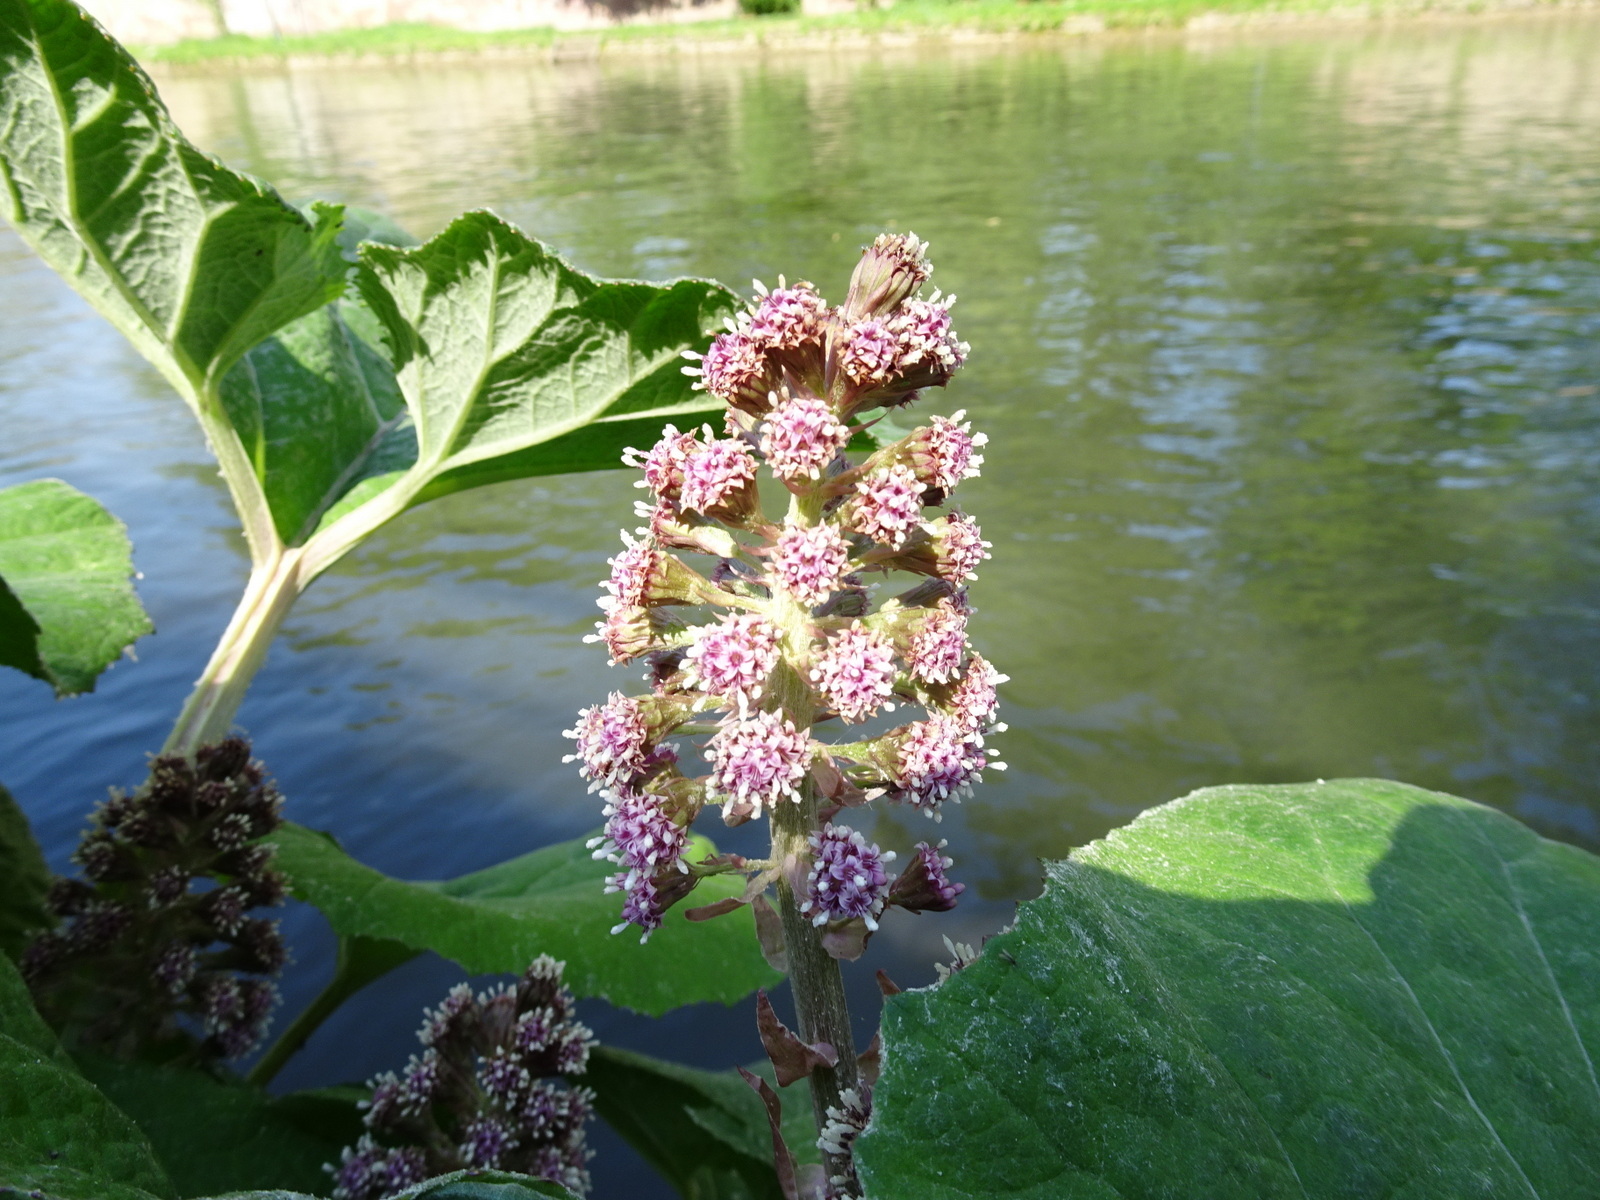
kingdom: Plantae
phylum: Tracheophyta
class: Magnoliopsida
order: Asterales
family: Asteraceae
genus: Petasites
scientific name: Petasites hybridus
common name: Butterbur
